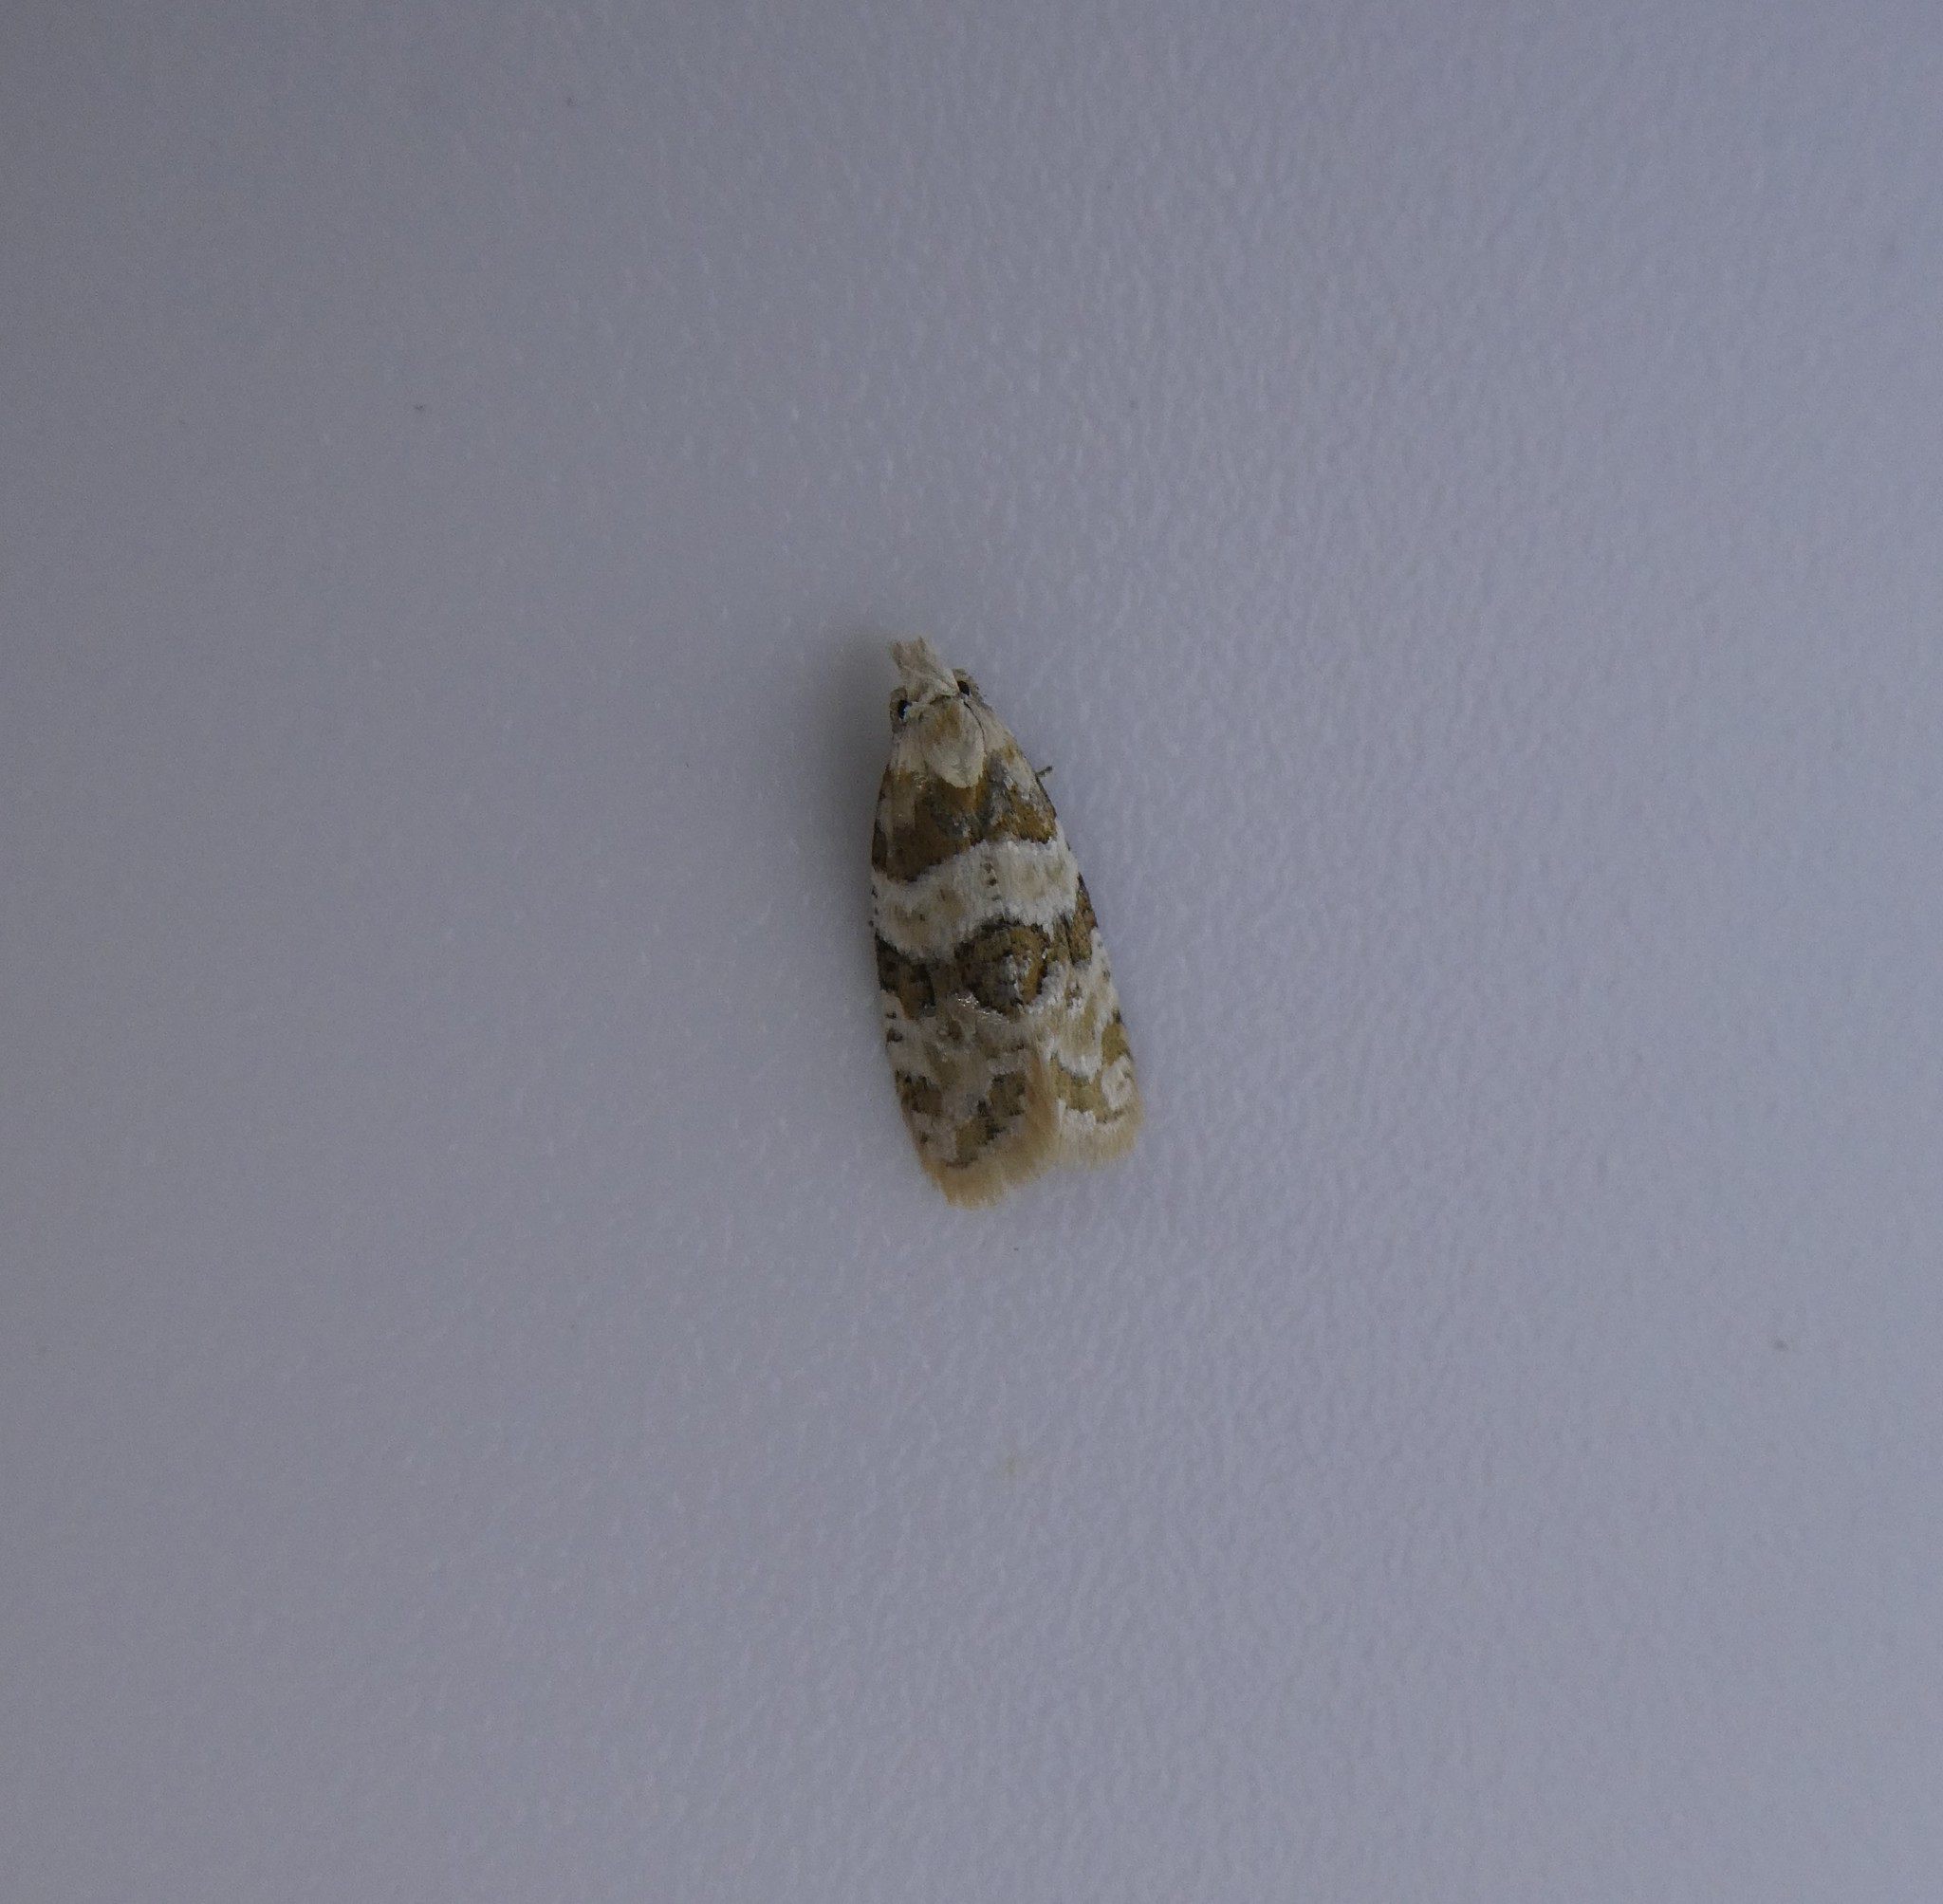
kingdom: Animalia
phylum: Arthropoda
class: Insecta
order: Lepidoptera
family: Tortricidae
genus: Aethes
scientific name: Aethes argentilimitana
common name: Silver-bordered aethes
